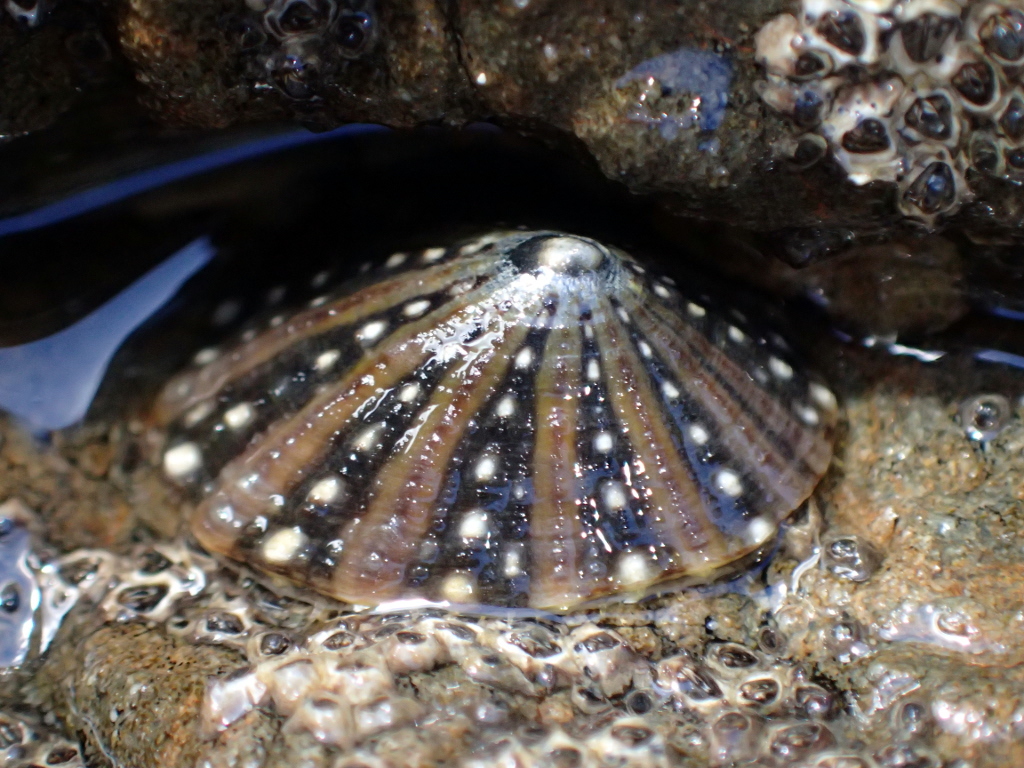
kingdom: Animalia
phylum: Mollusca
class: Gastropoda
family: Nacellidae
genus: Cellana
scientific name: Cellana ornata
